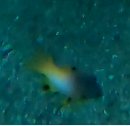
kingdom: Animalia
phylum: Chordata
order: Perciformes
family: Labridae
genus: Bodianus
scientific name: Bodianus axillaris
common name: Axilspot hogfish
